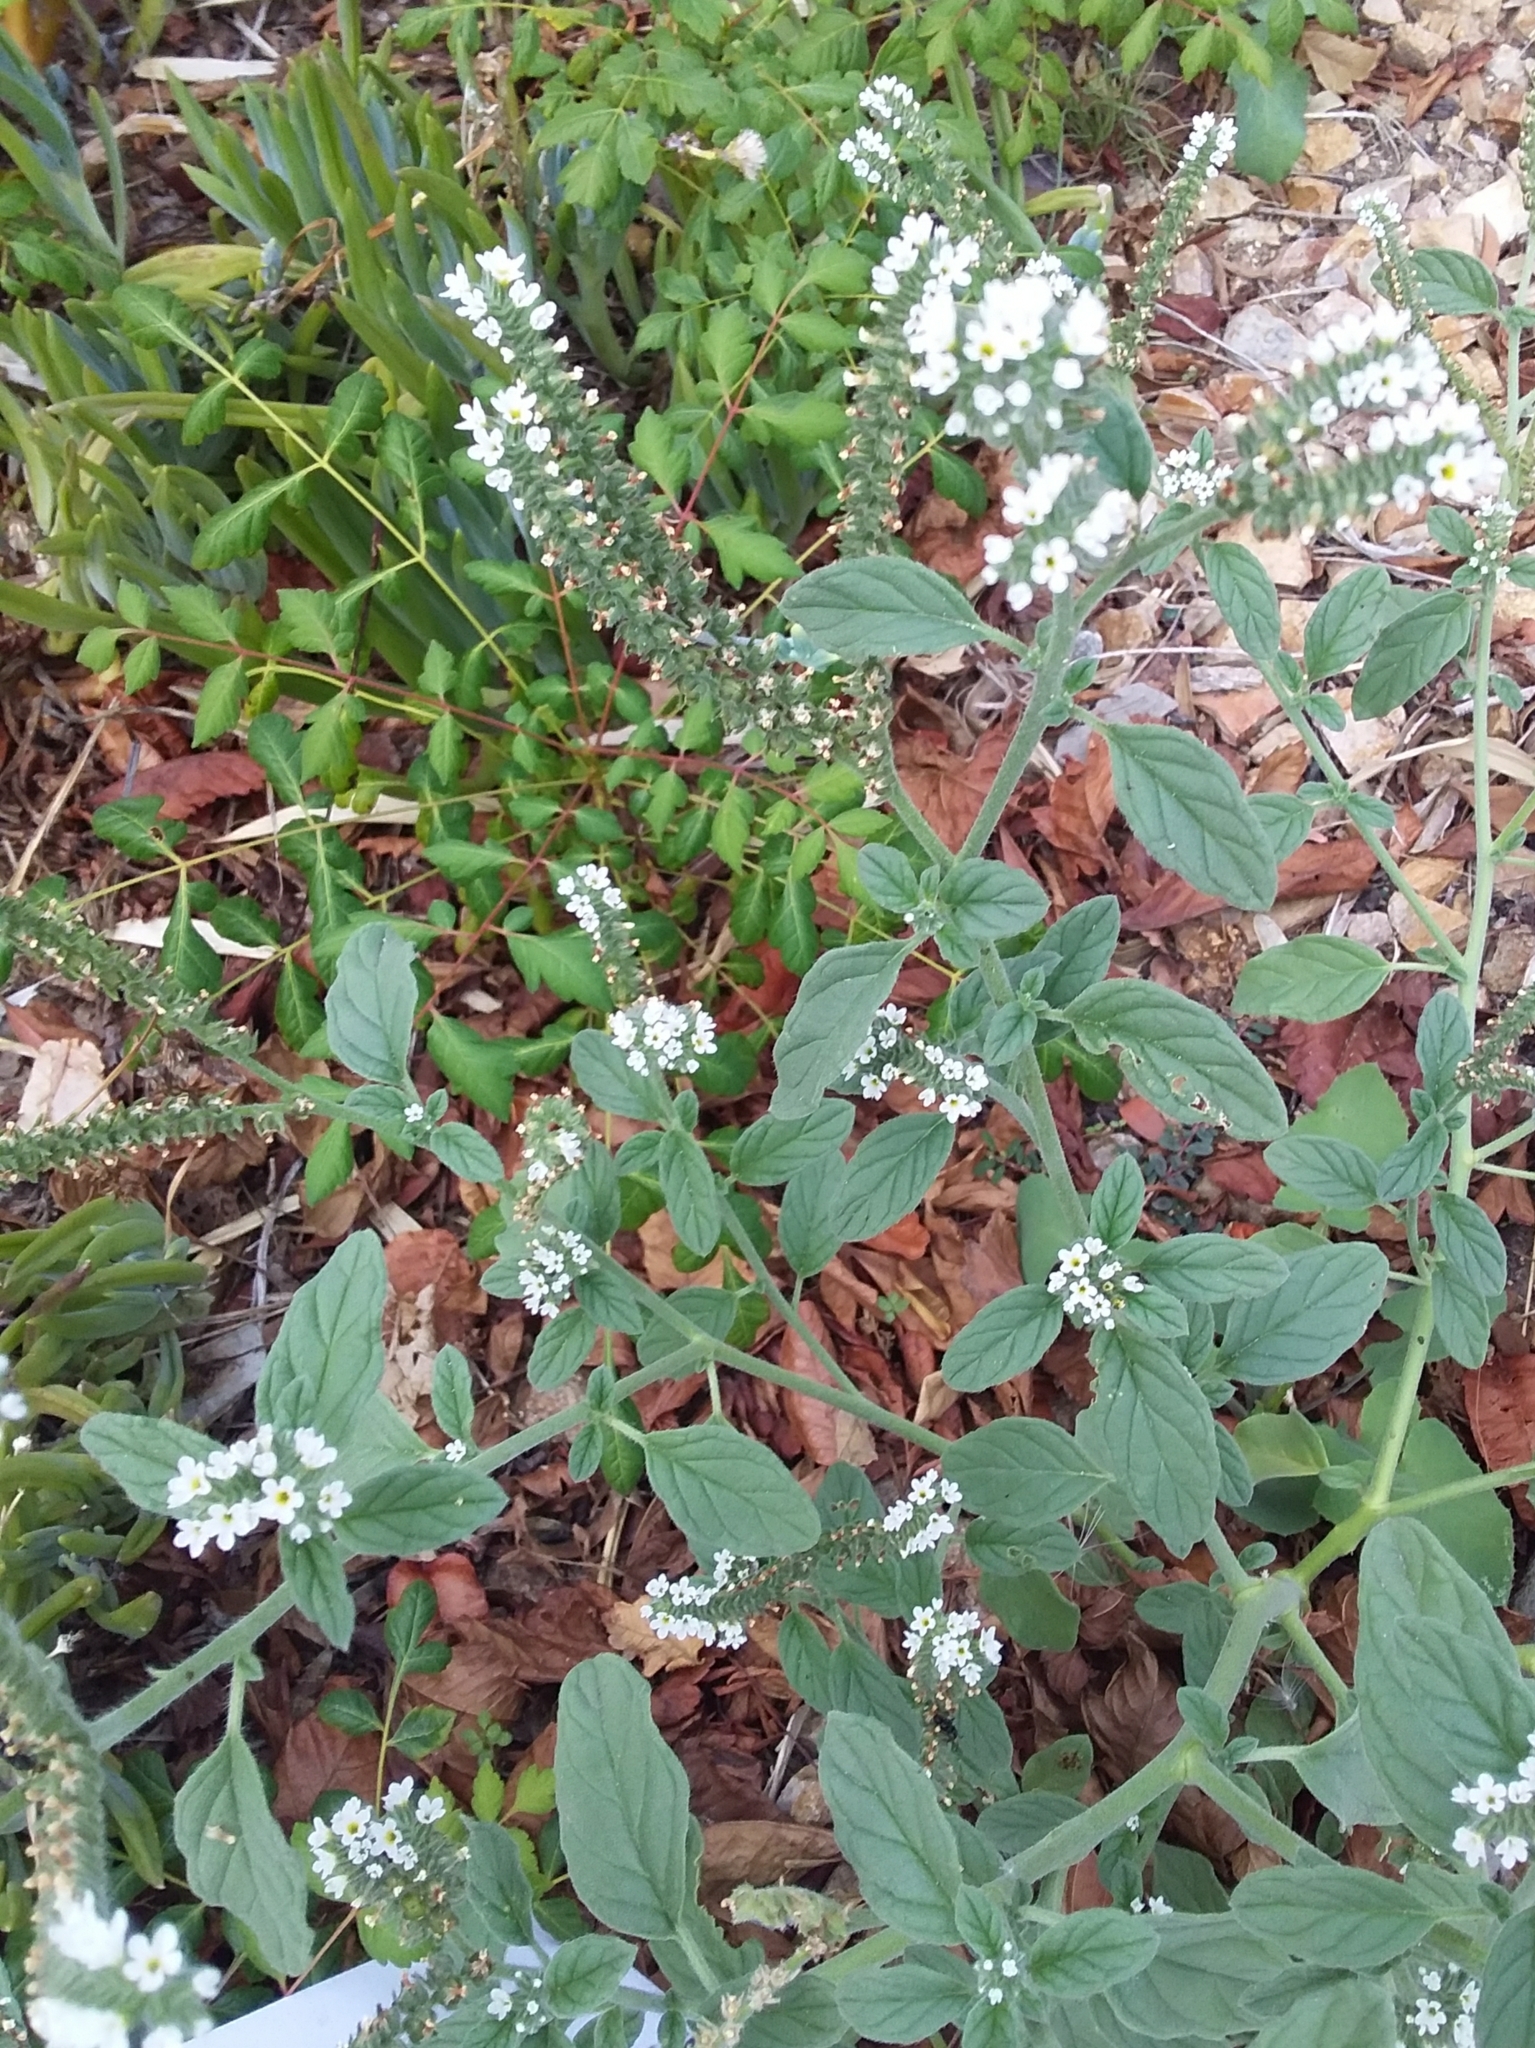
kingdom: Plantae
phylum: Tracheophyta
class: Magnoliopsida
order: Boraginales
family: Heliotropiaceae
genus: Heliotropium
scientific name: Heliotropium europaeum
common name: European heliotrope
